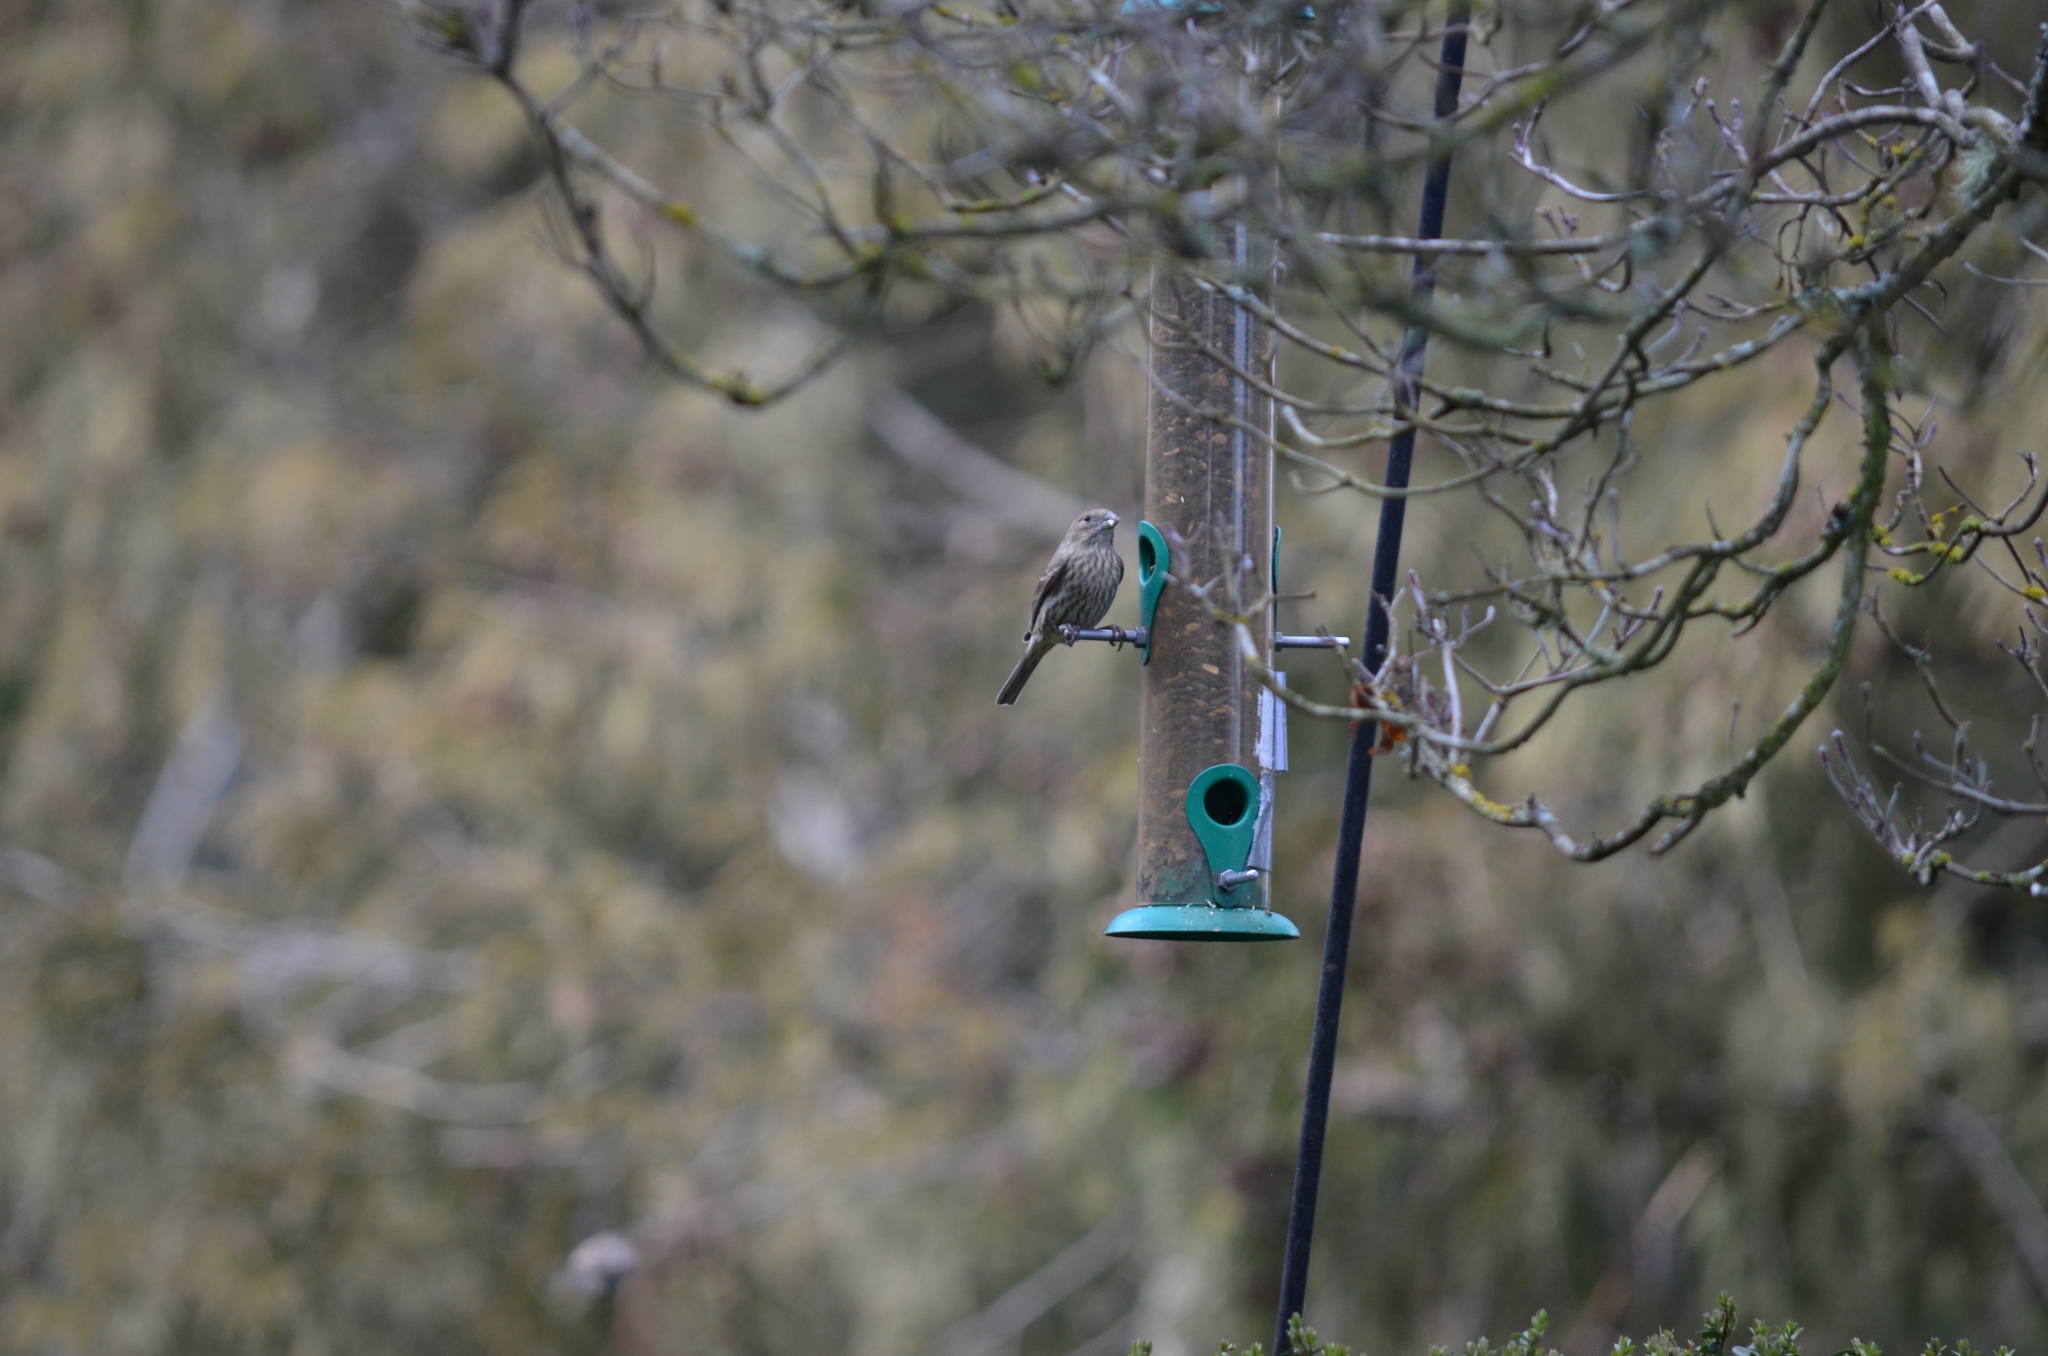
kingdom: Animalia
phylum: Chordata
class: Aves
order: Passeriformes
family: Fringillidae
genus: Haemorhous
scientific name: Haemorhous mexicanus
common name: House finch
